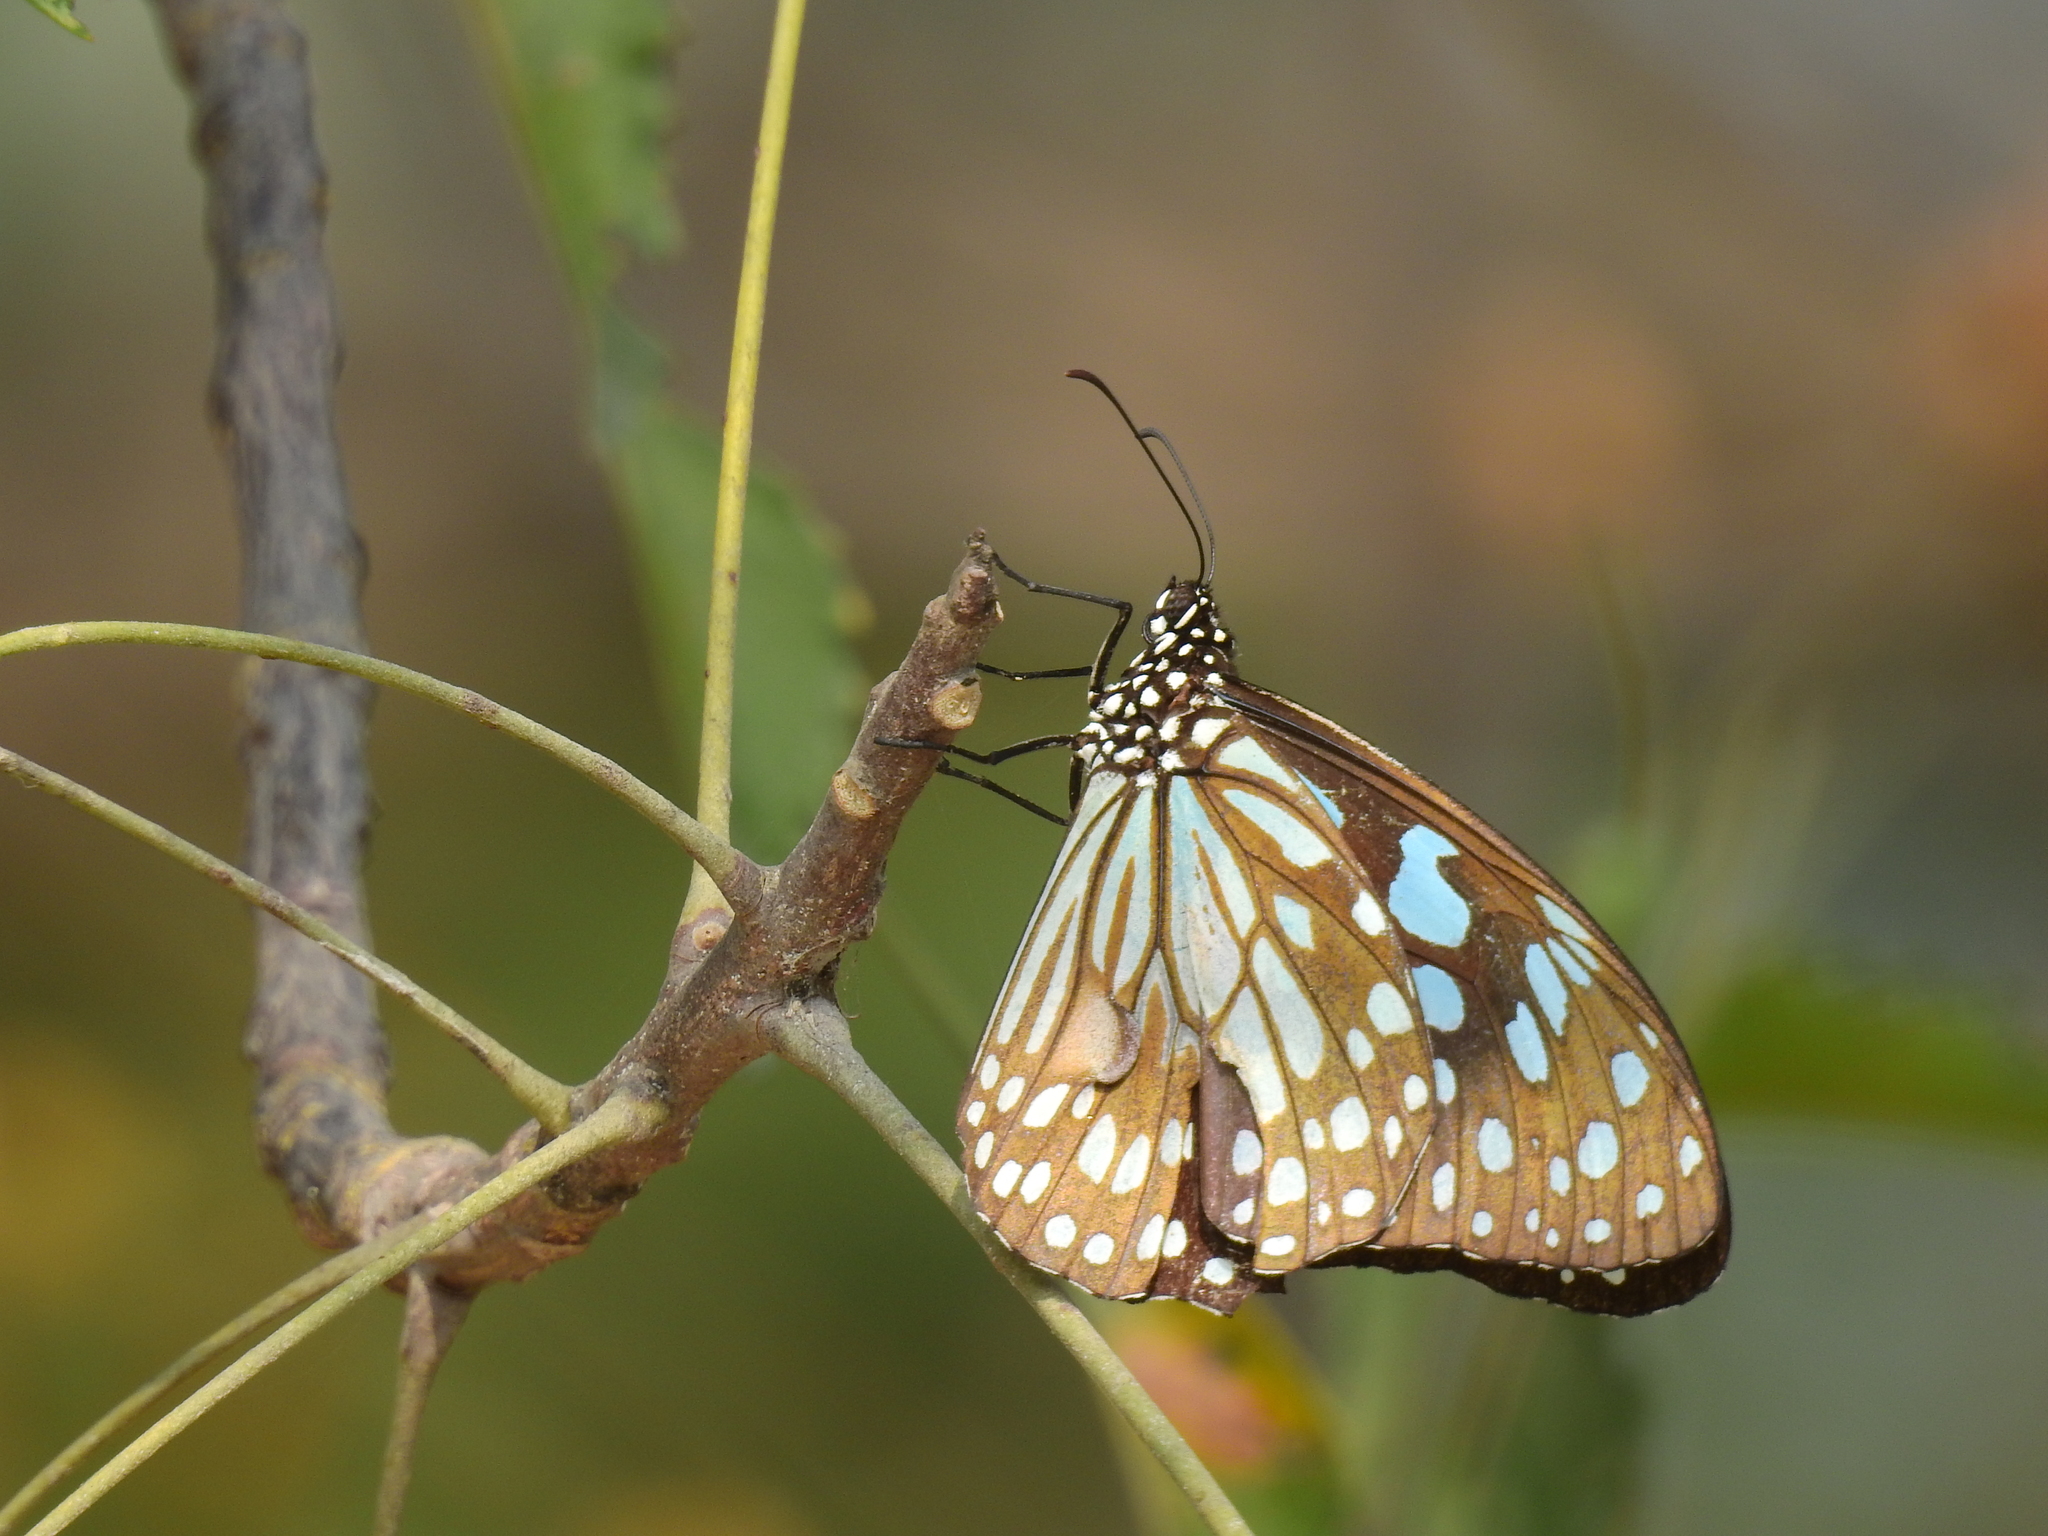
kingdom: Animalia
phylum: Arthropoda
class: Insecta
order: Lepidoptera
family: Nymphalidae
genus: Tirumala
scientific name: Tirumala limniace
